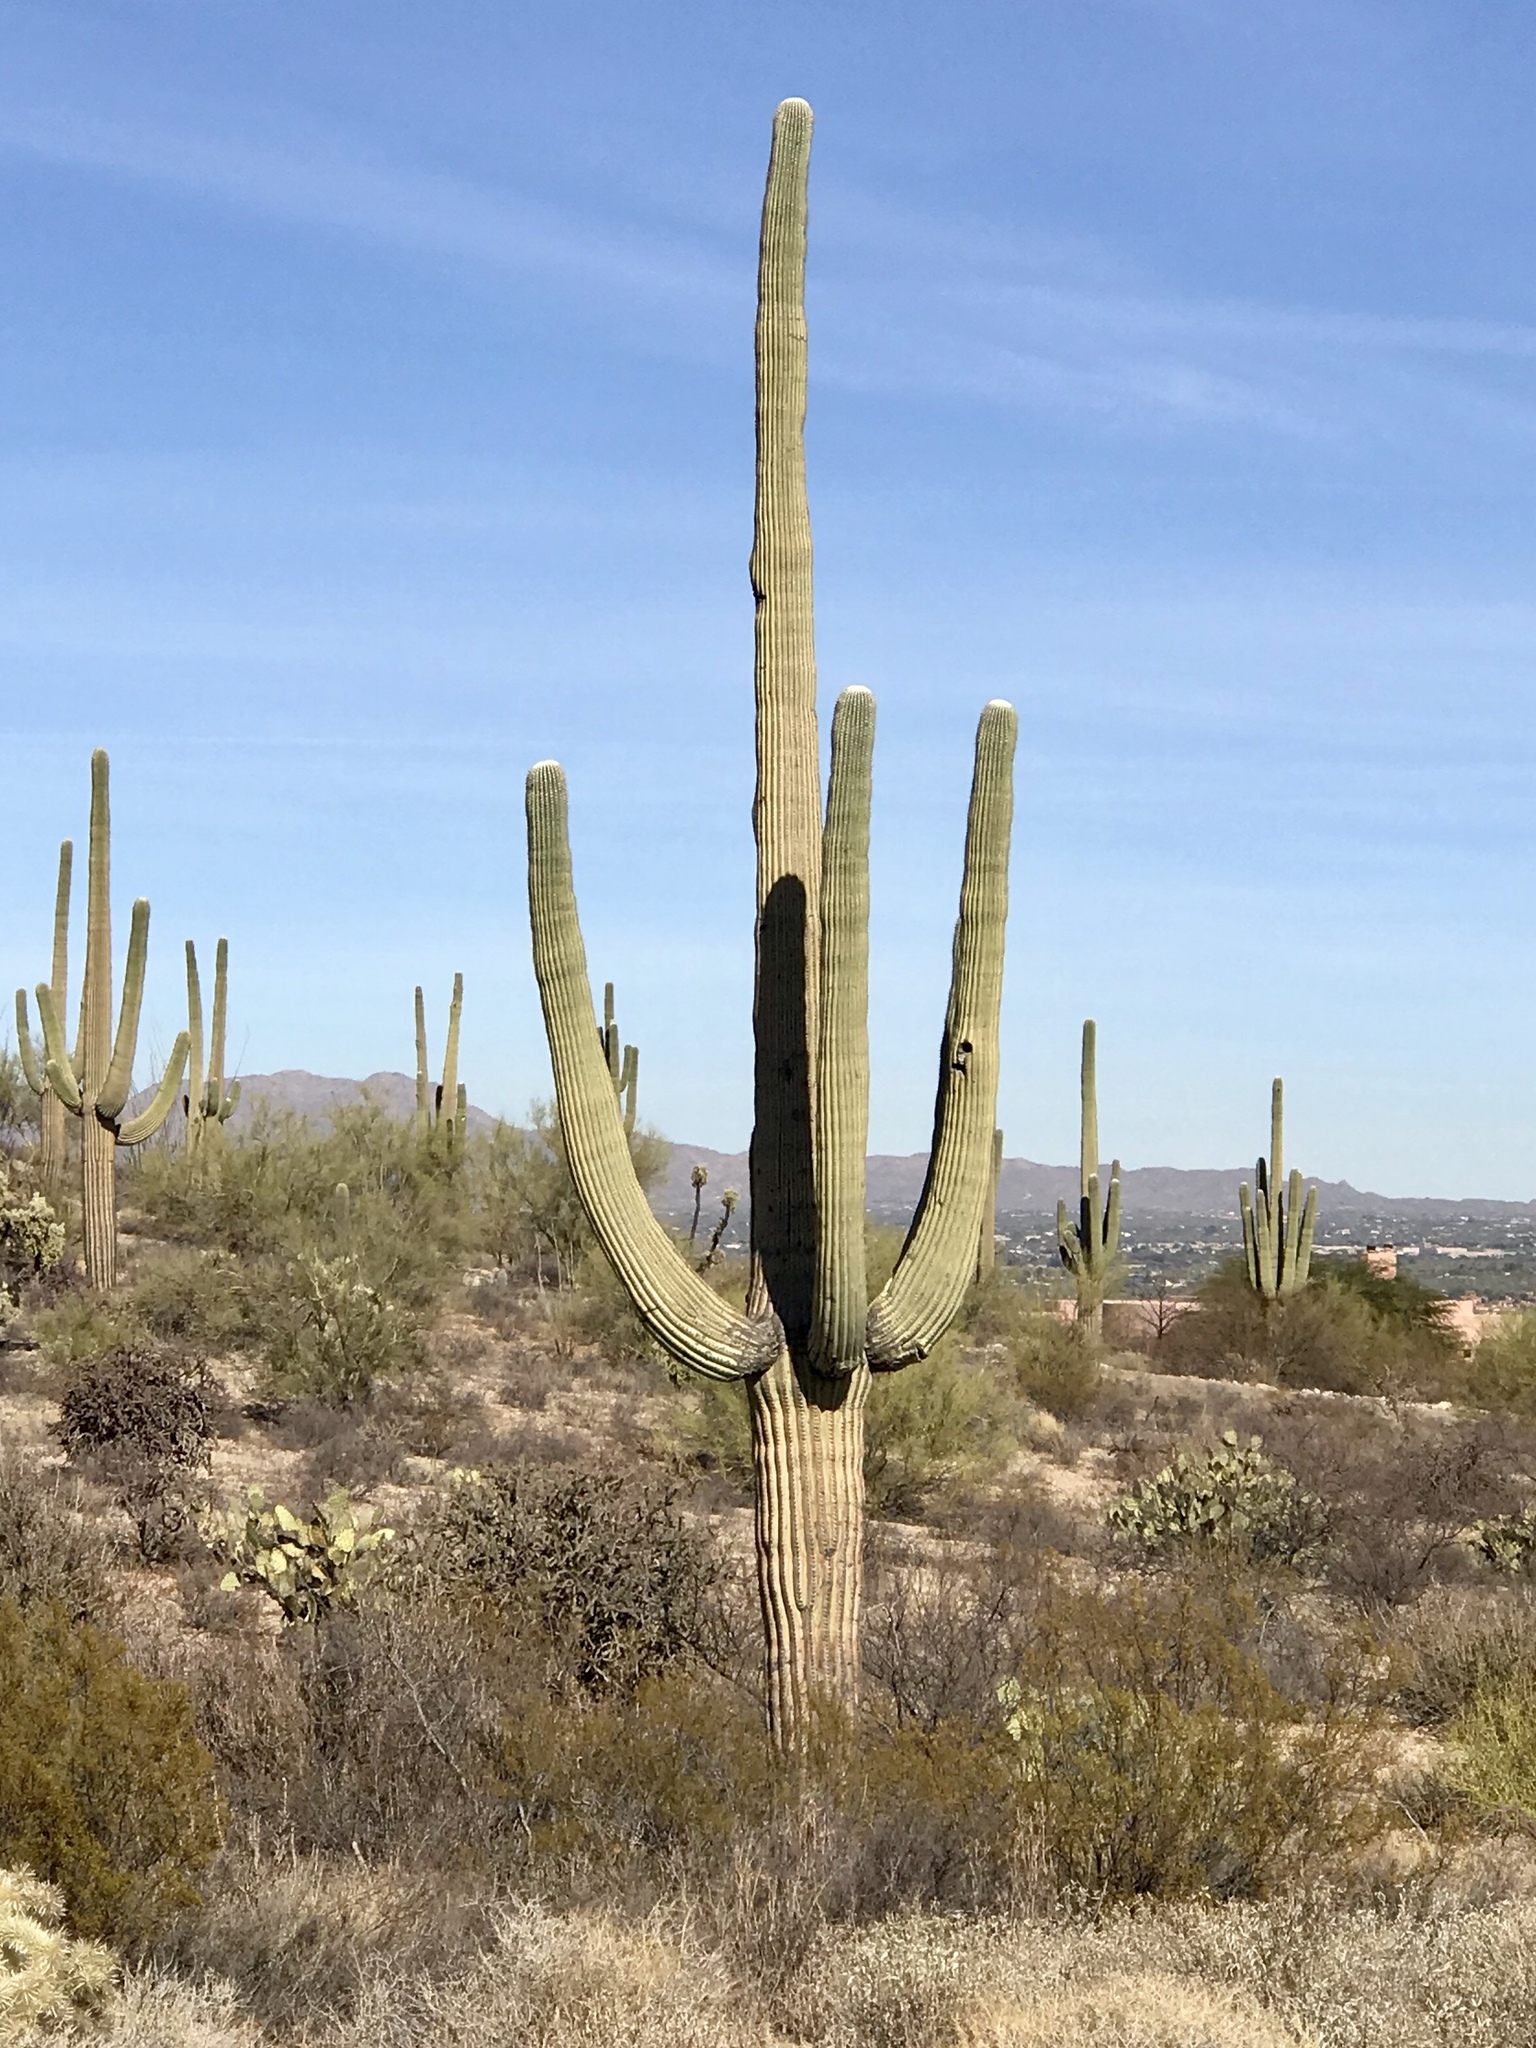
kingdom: Plantae
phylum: Tracheophyta
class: Magnoliopsida
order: Caryophyllales
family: Cactaceae
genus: Carnegiea
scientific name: Carnegiea gigantea
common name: Saguaro
